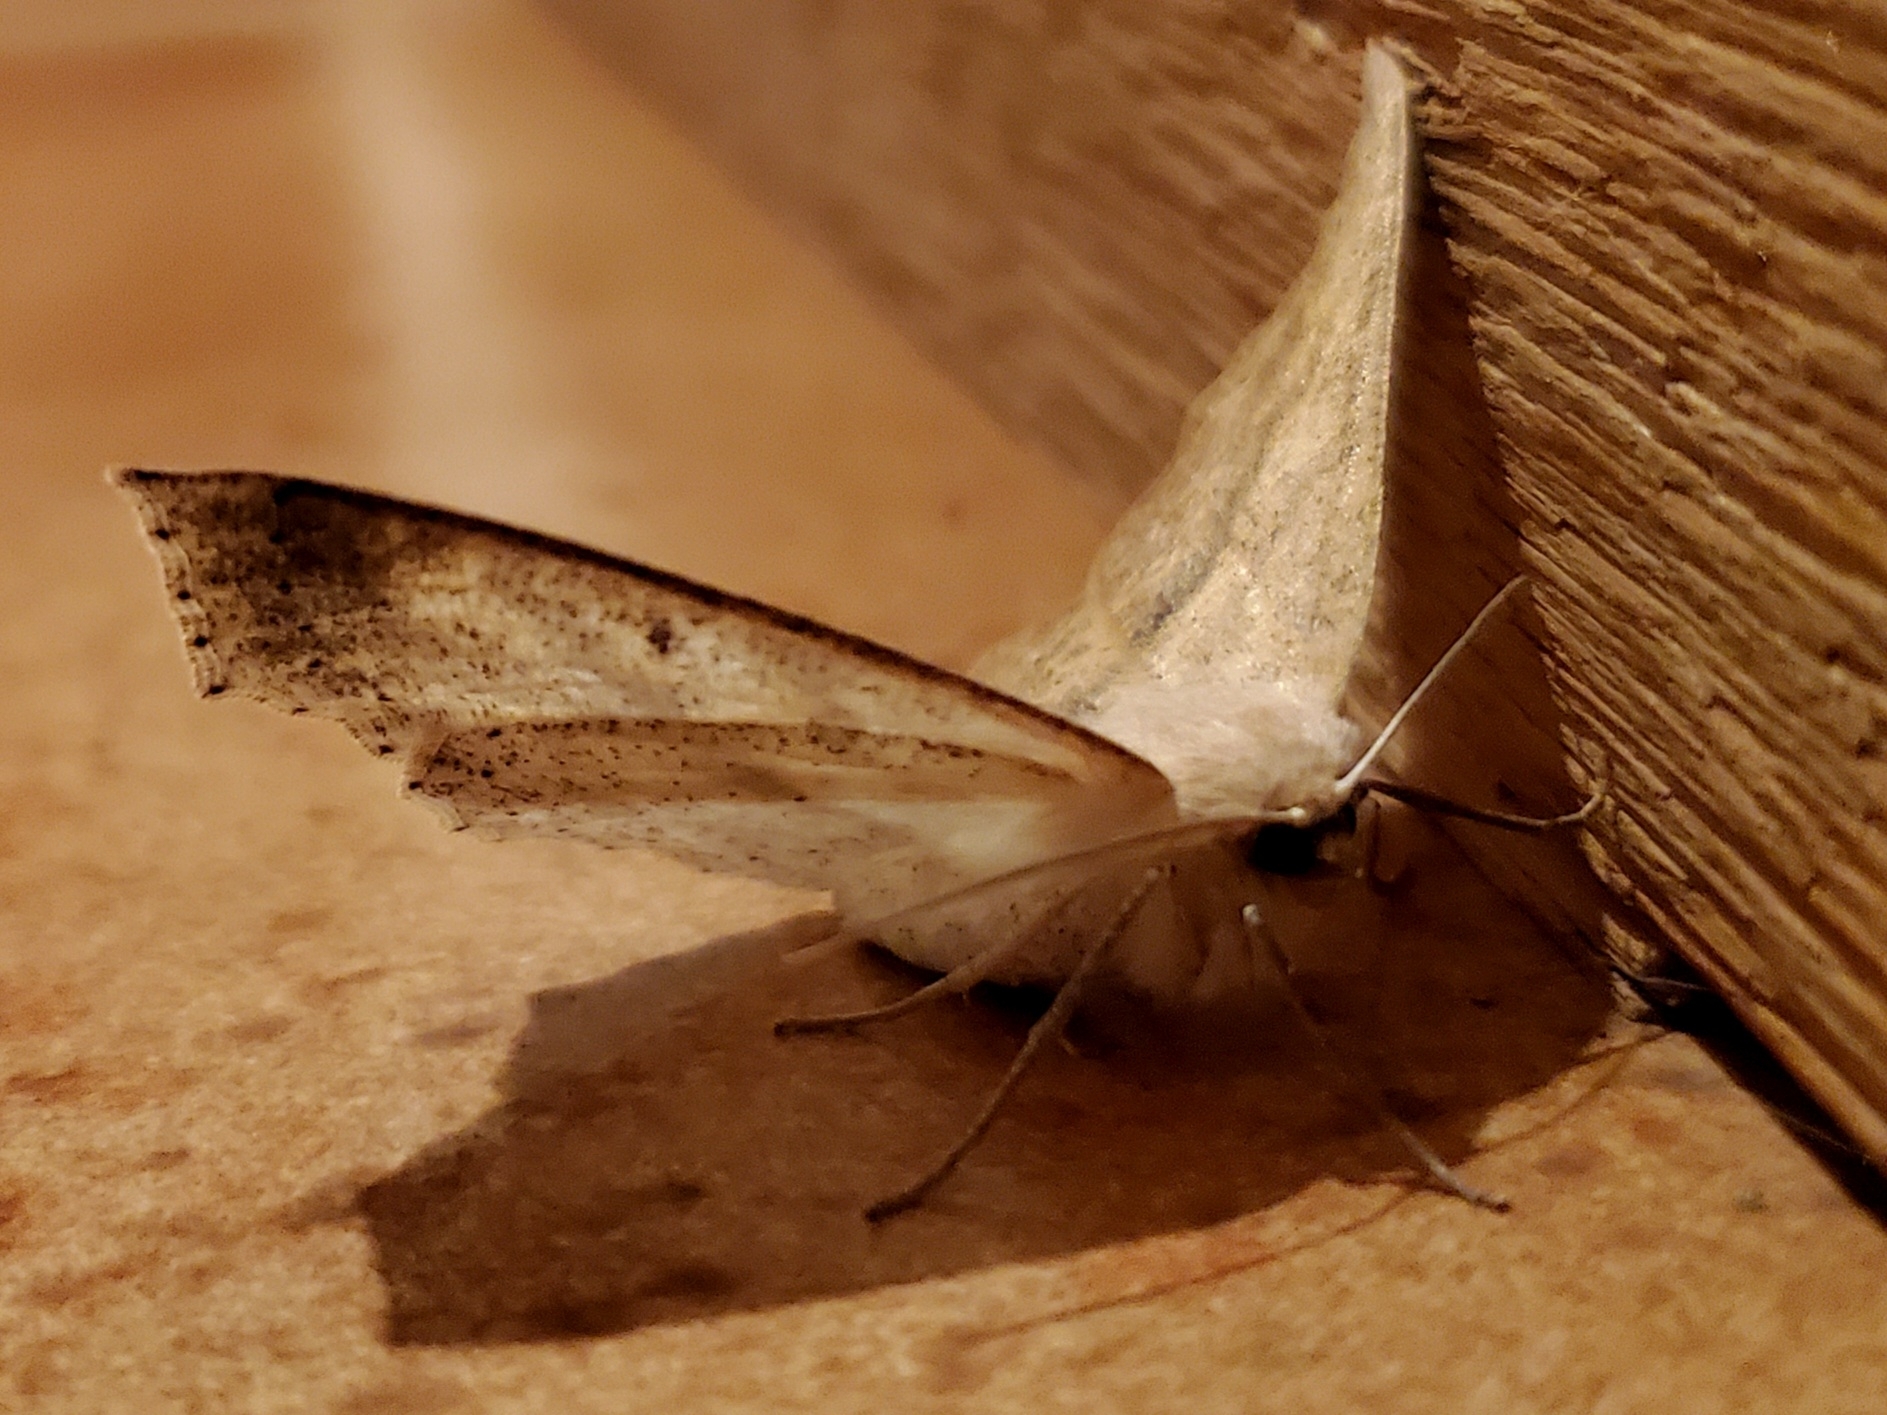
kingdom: Animalia
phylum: Arthropoda
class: Insecta
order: Lepidoptera
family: Geometridae
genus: Sabulodes
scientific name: Sabulodes aegrotata
